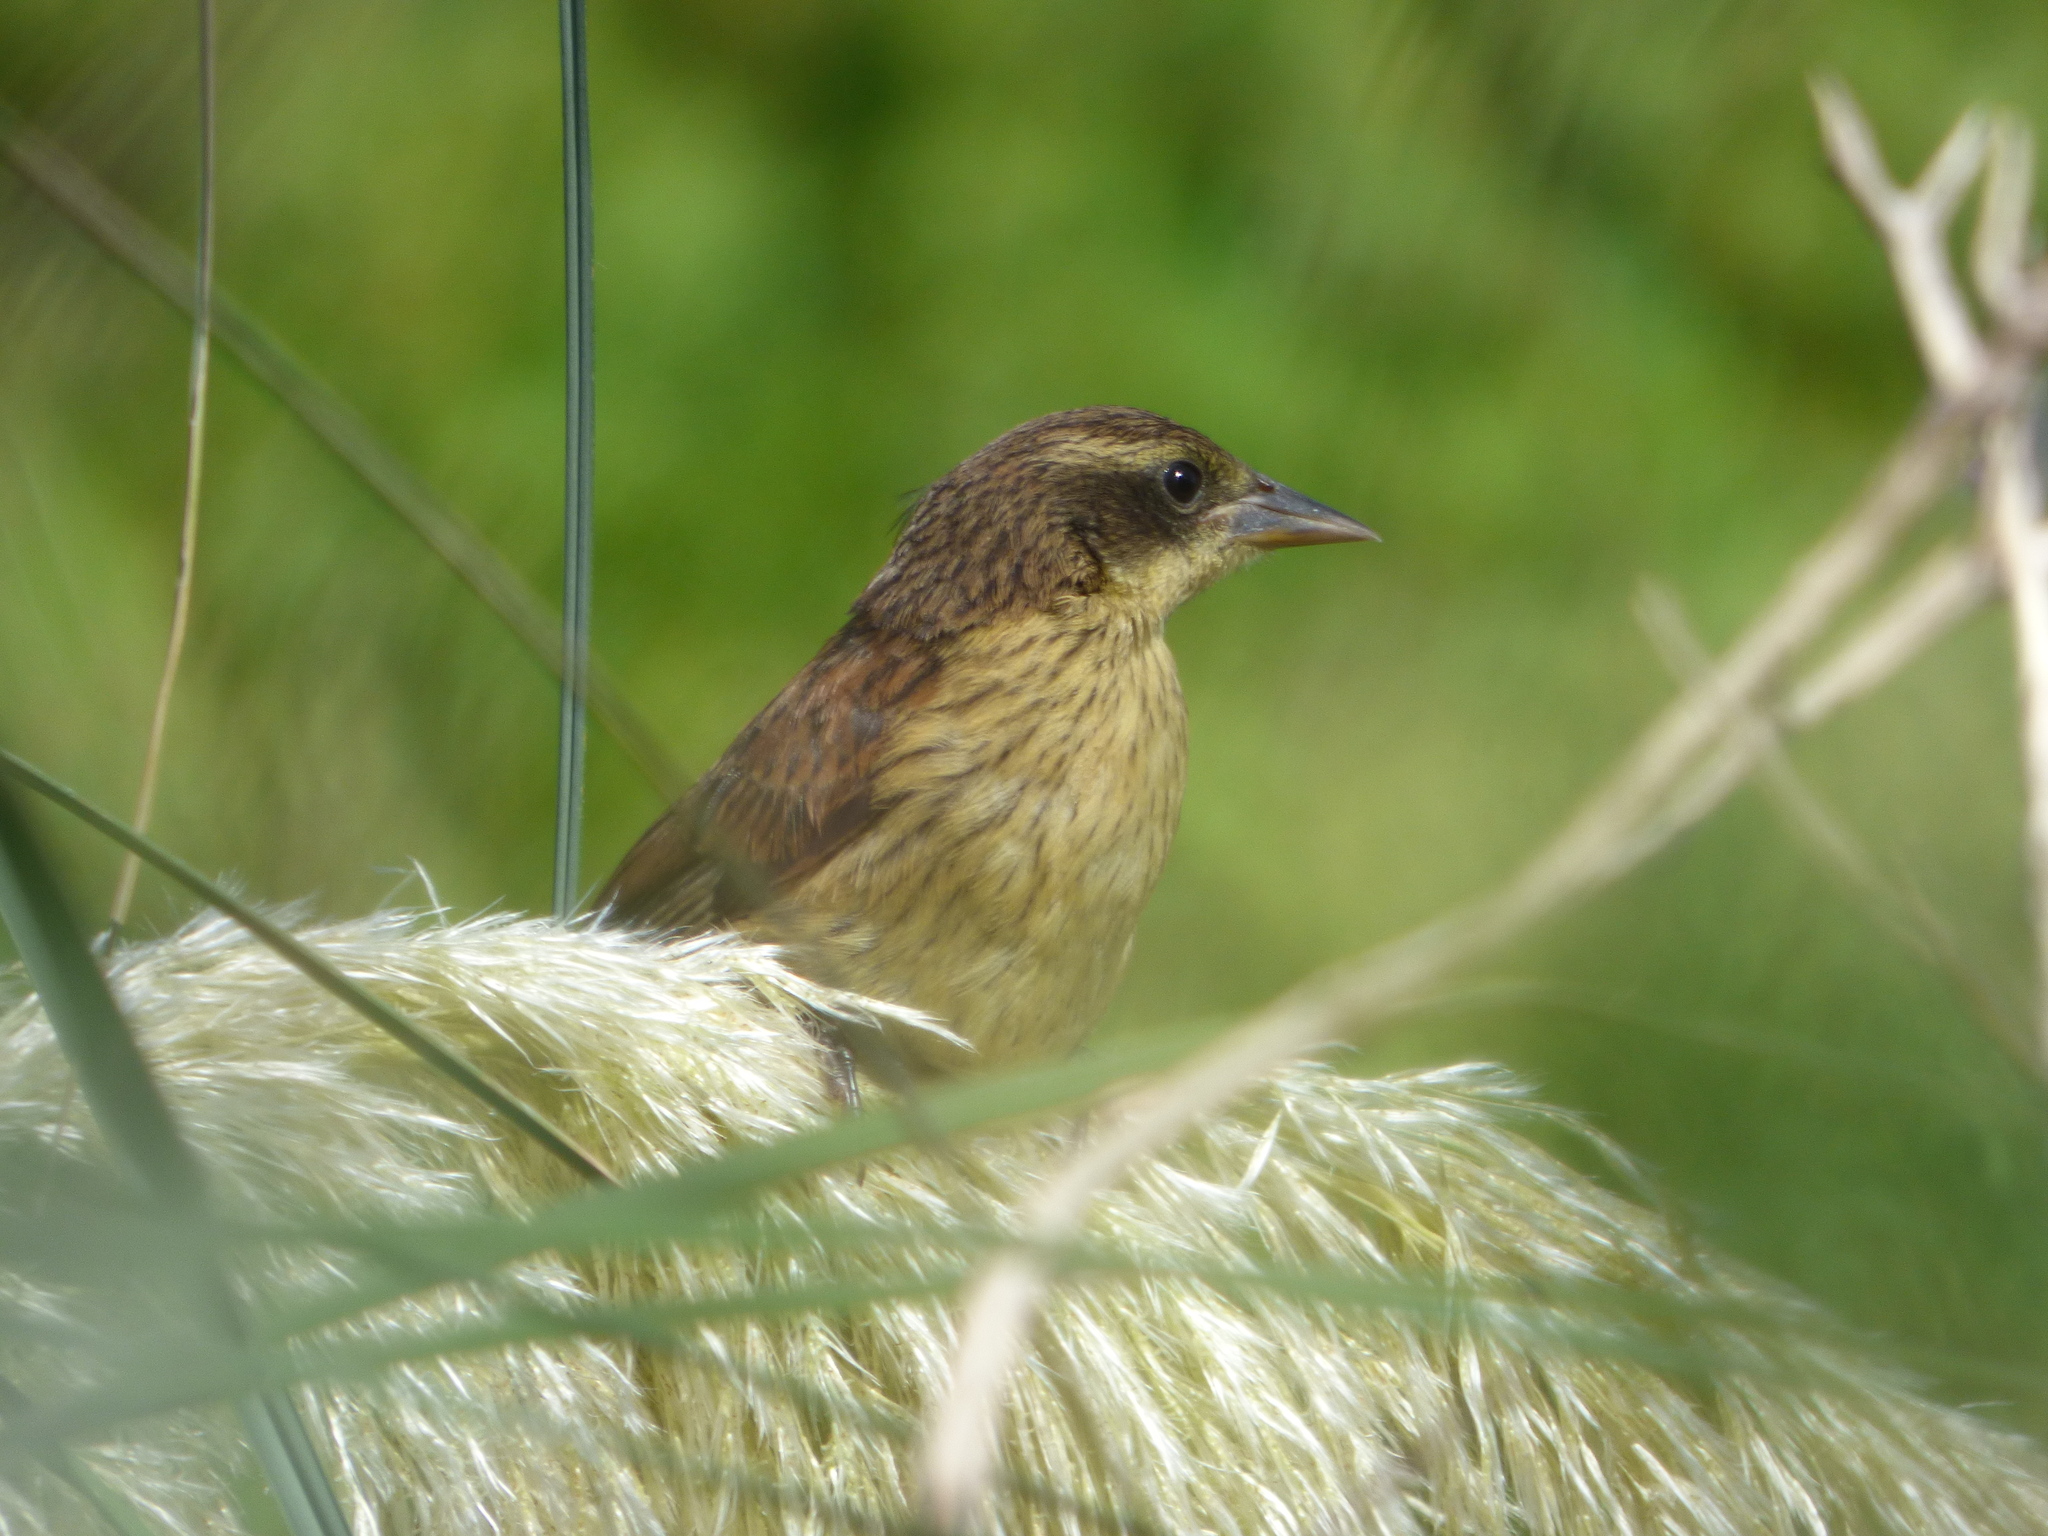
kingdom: Animalia
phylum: Chordata
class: Aves
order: Passeriformes
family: Icteridae
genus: Agelasticus
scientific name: Agelasticus cyanopus
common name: Unicolored blackbird
